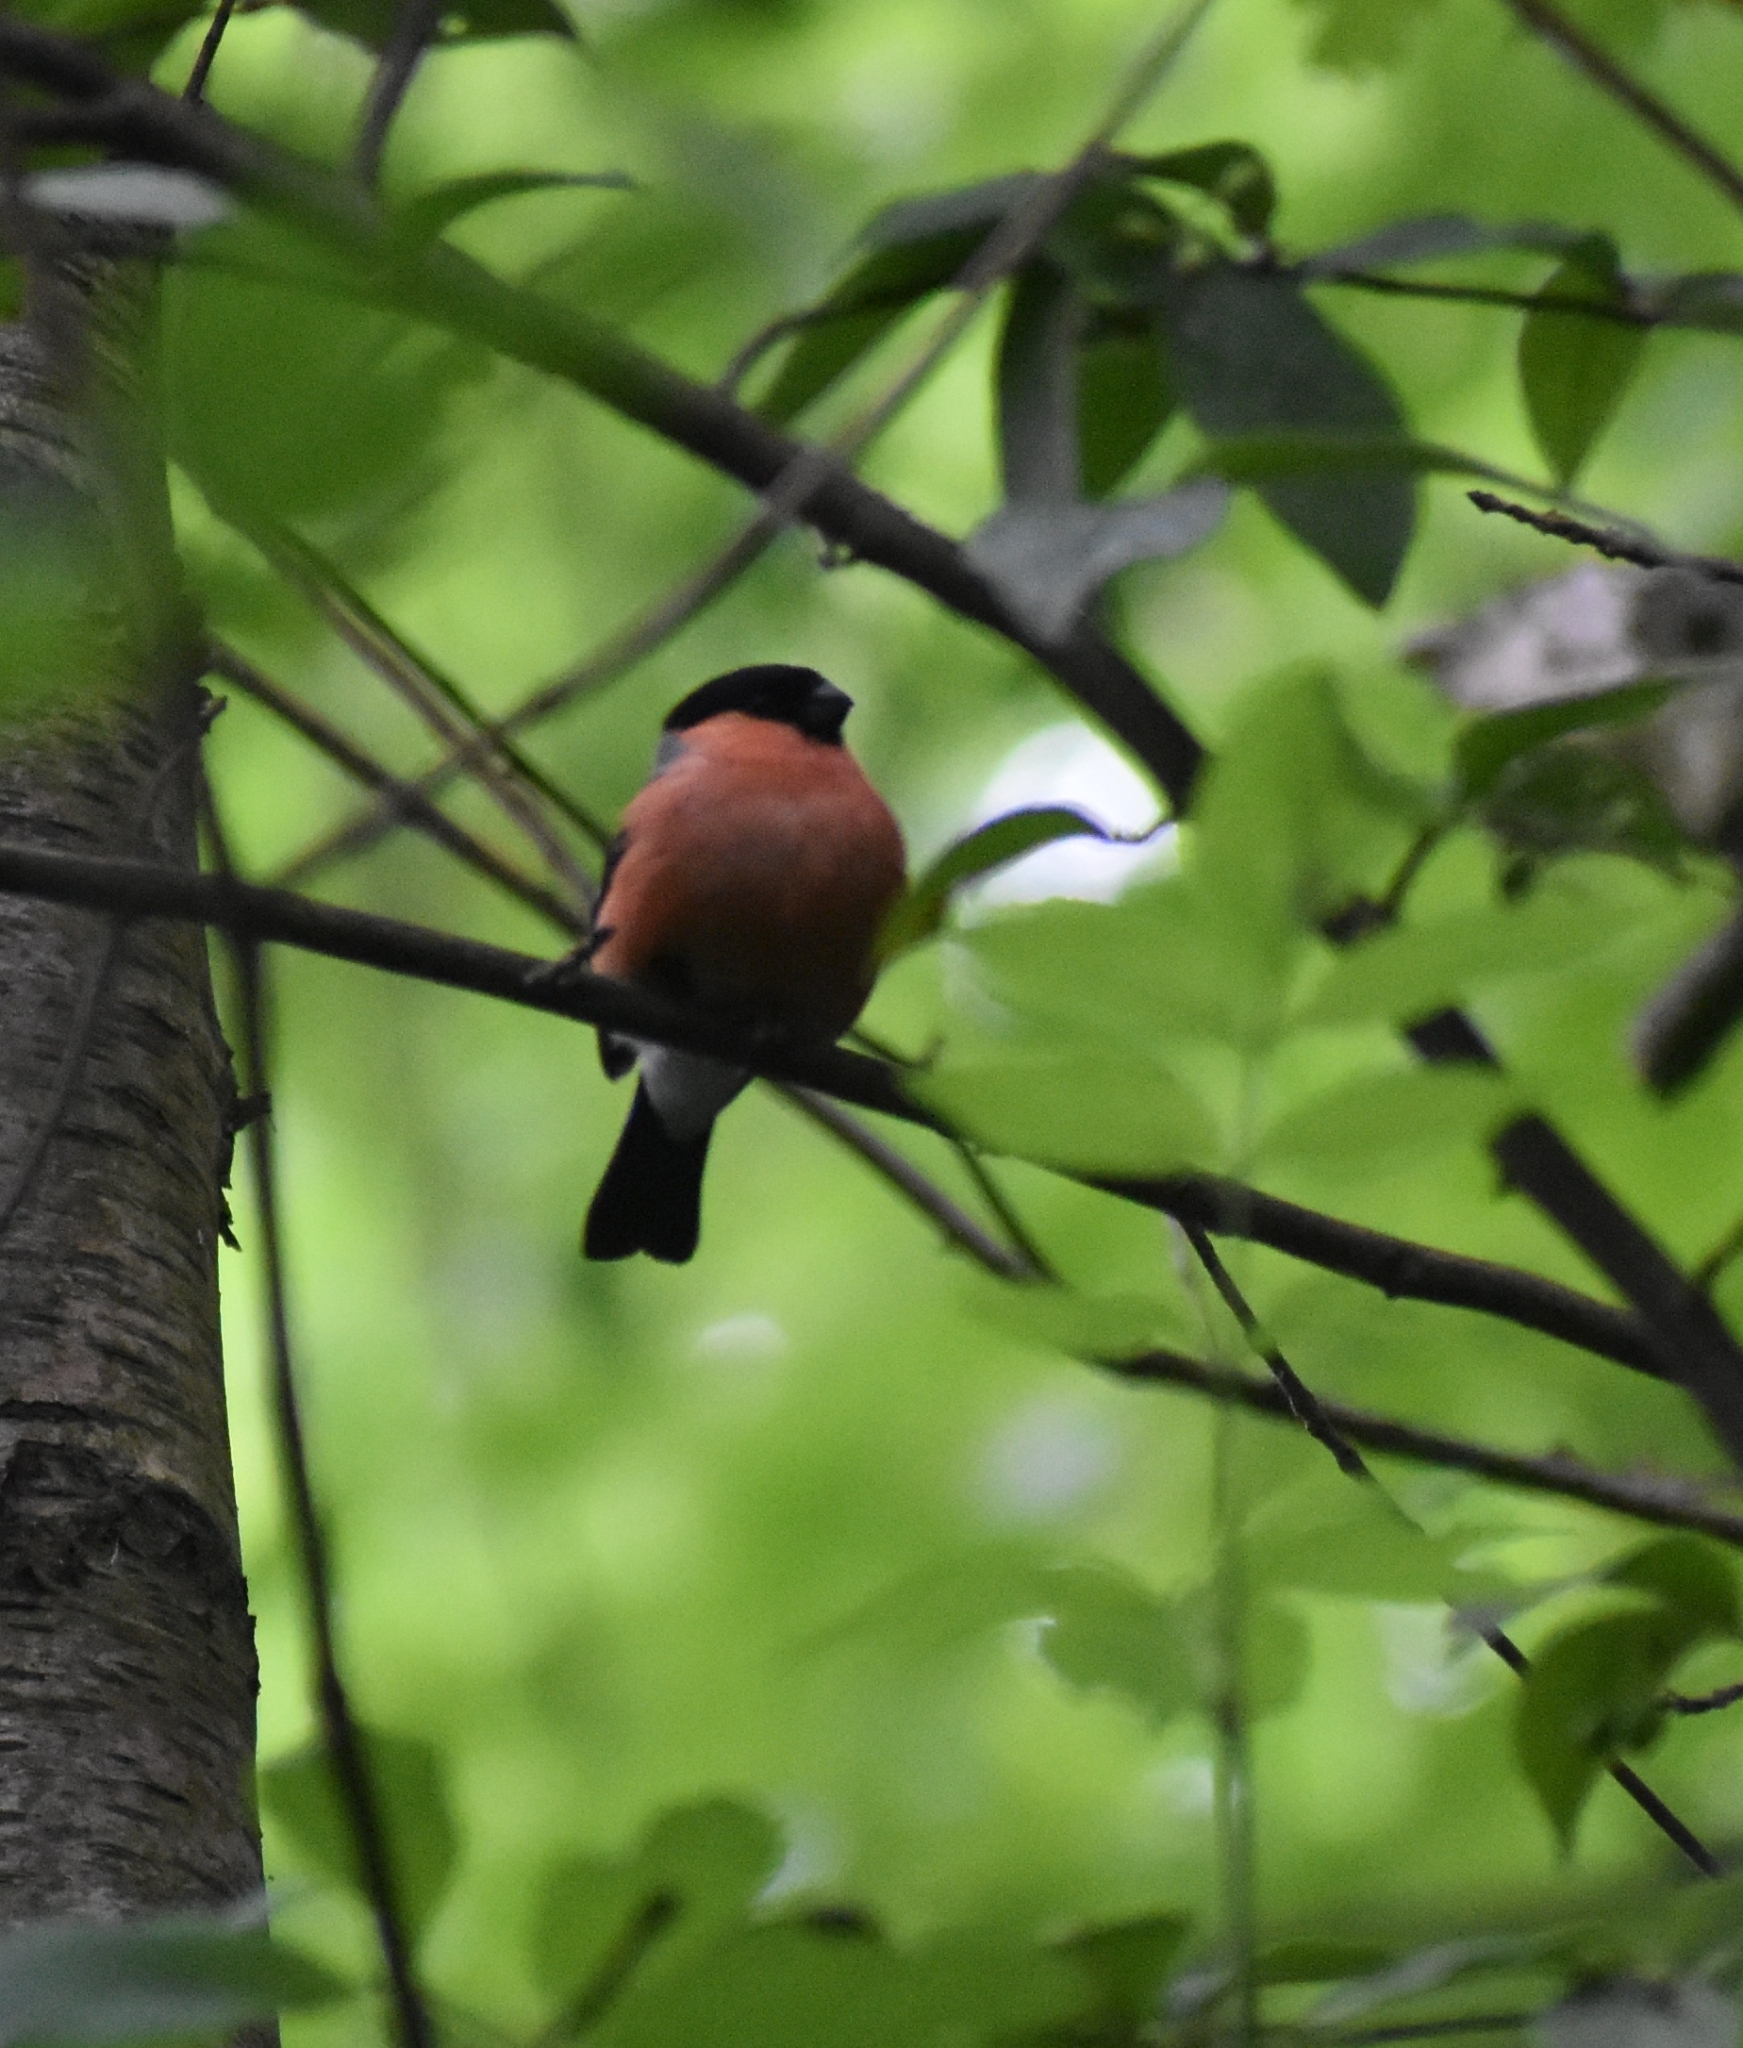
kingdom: Animalia
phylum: Chordata
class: Aves
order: Passeriformes
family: Fringillidae
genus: Pyrrhula
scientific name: Pyrrhula pyrrhula
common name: Eurasian bullfinch
